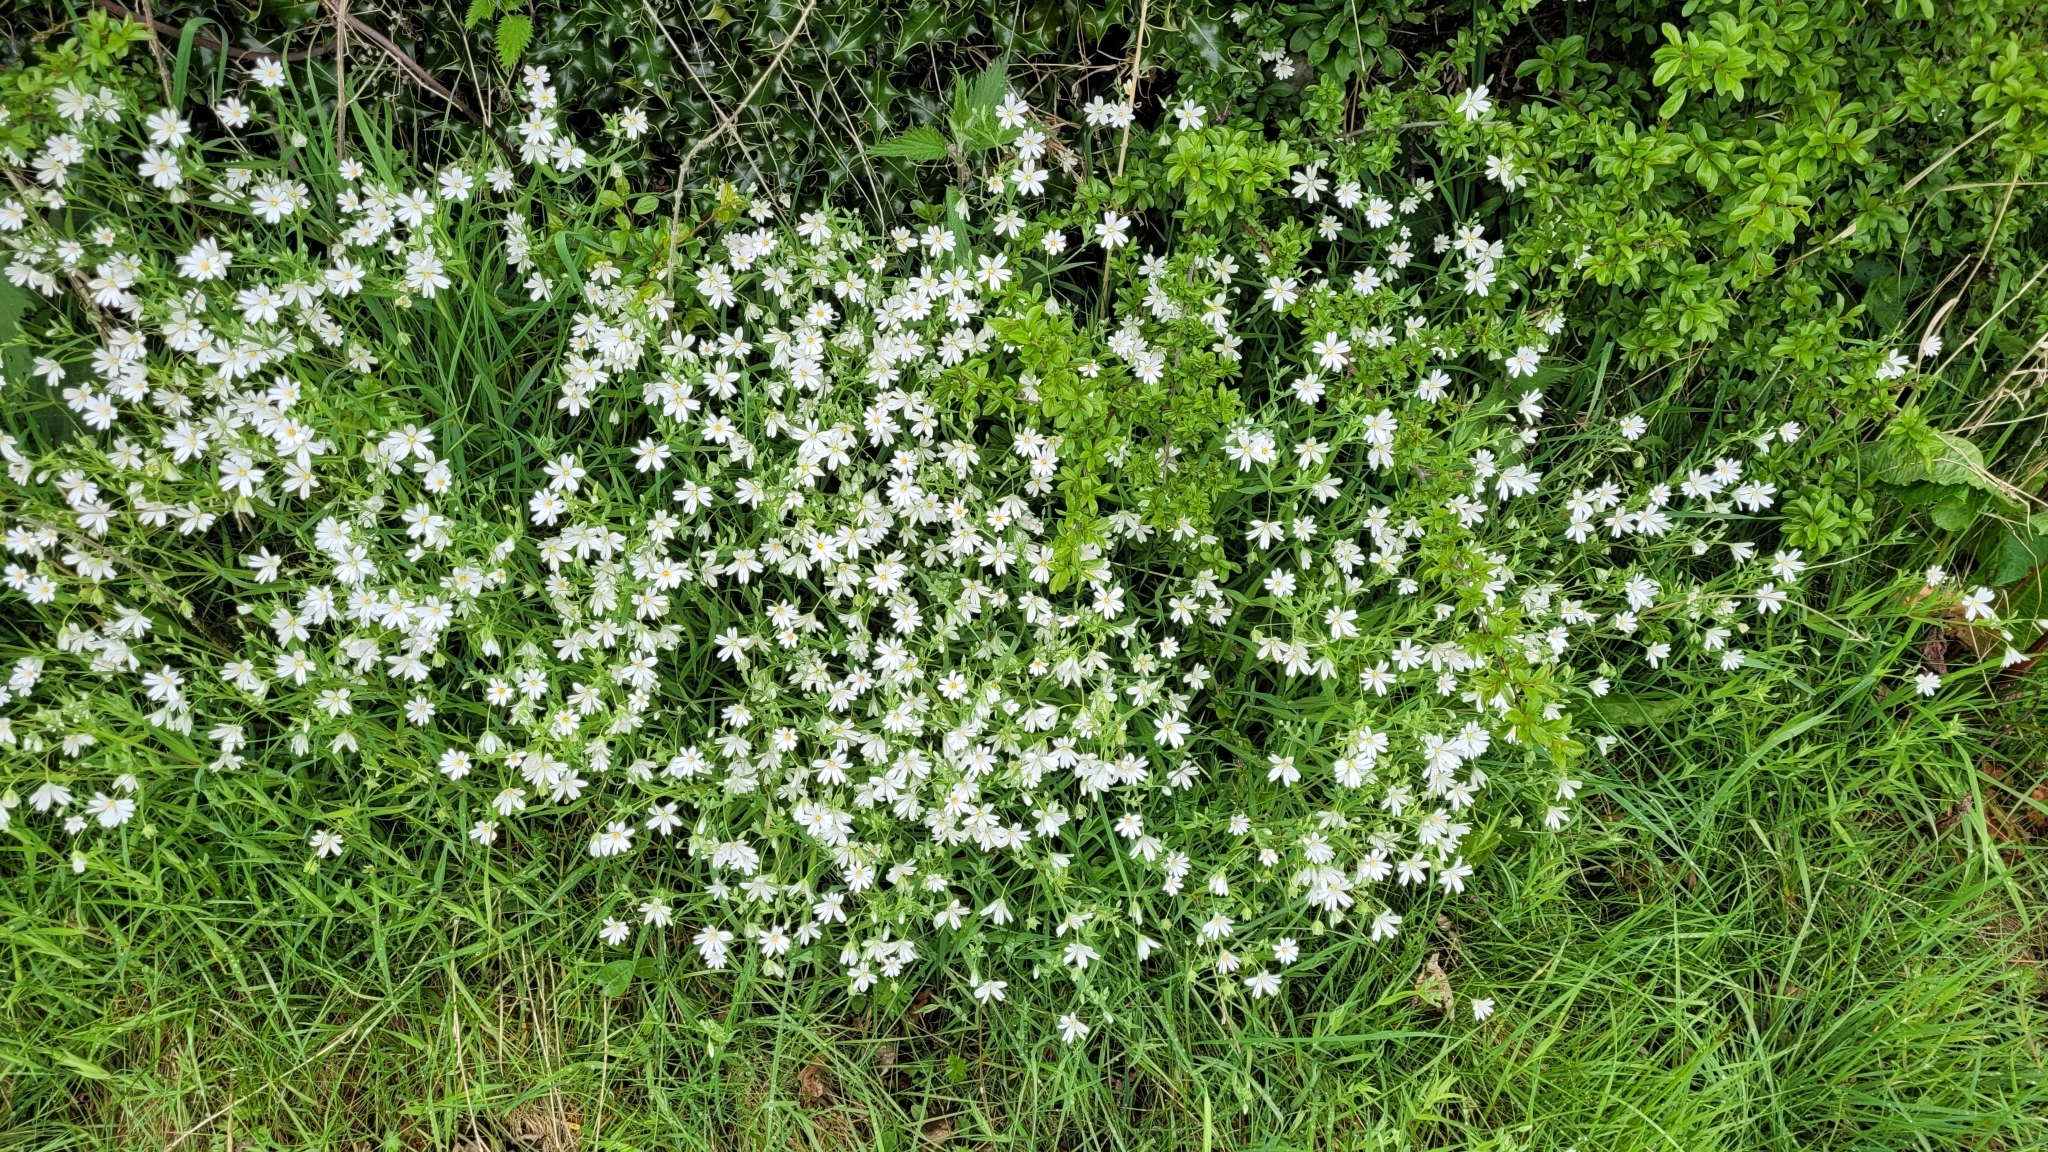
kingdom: Plantae
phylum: Tracheophyta
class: Magnoliopsida
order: Caryophyllales
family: Caryophyllaceae
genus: Rabelera
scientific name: Rabelera holostea
